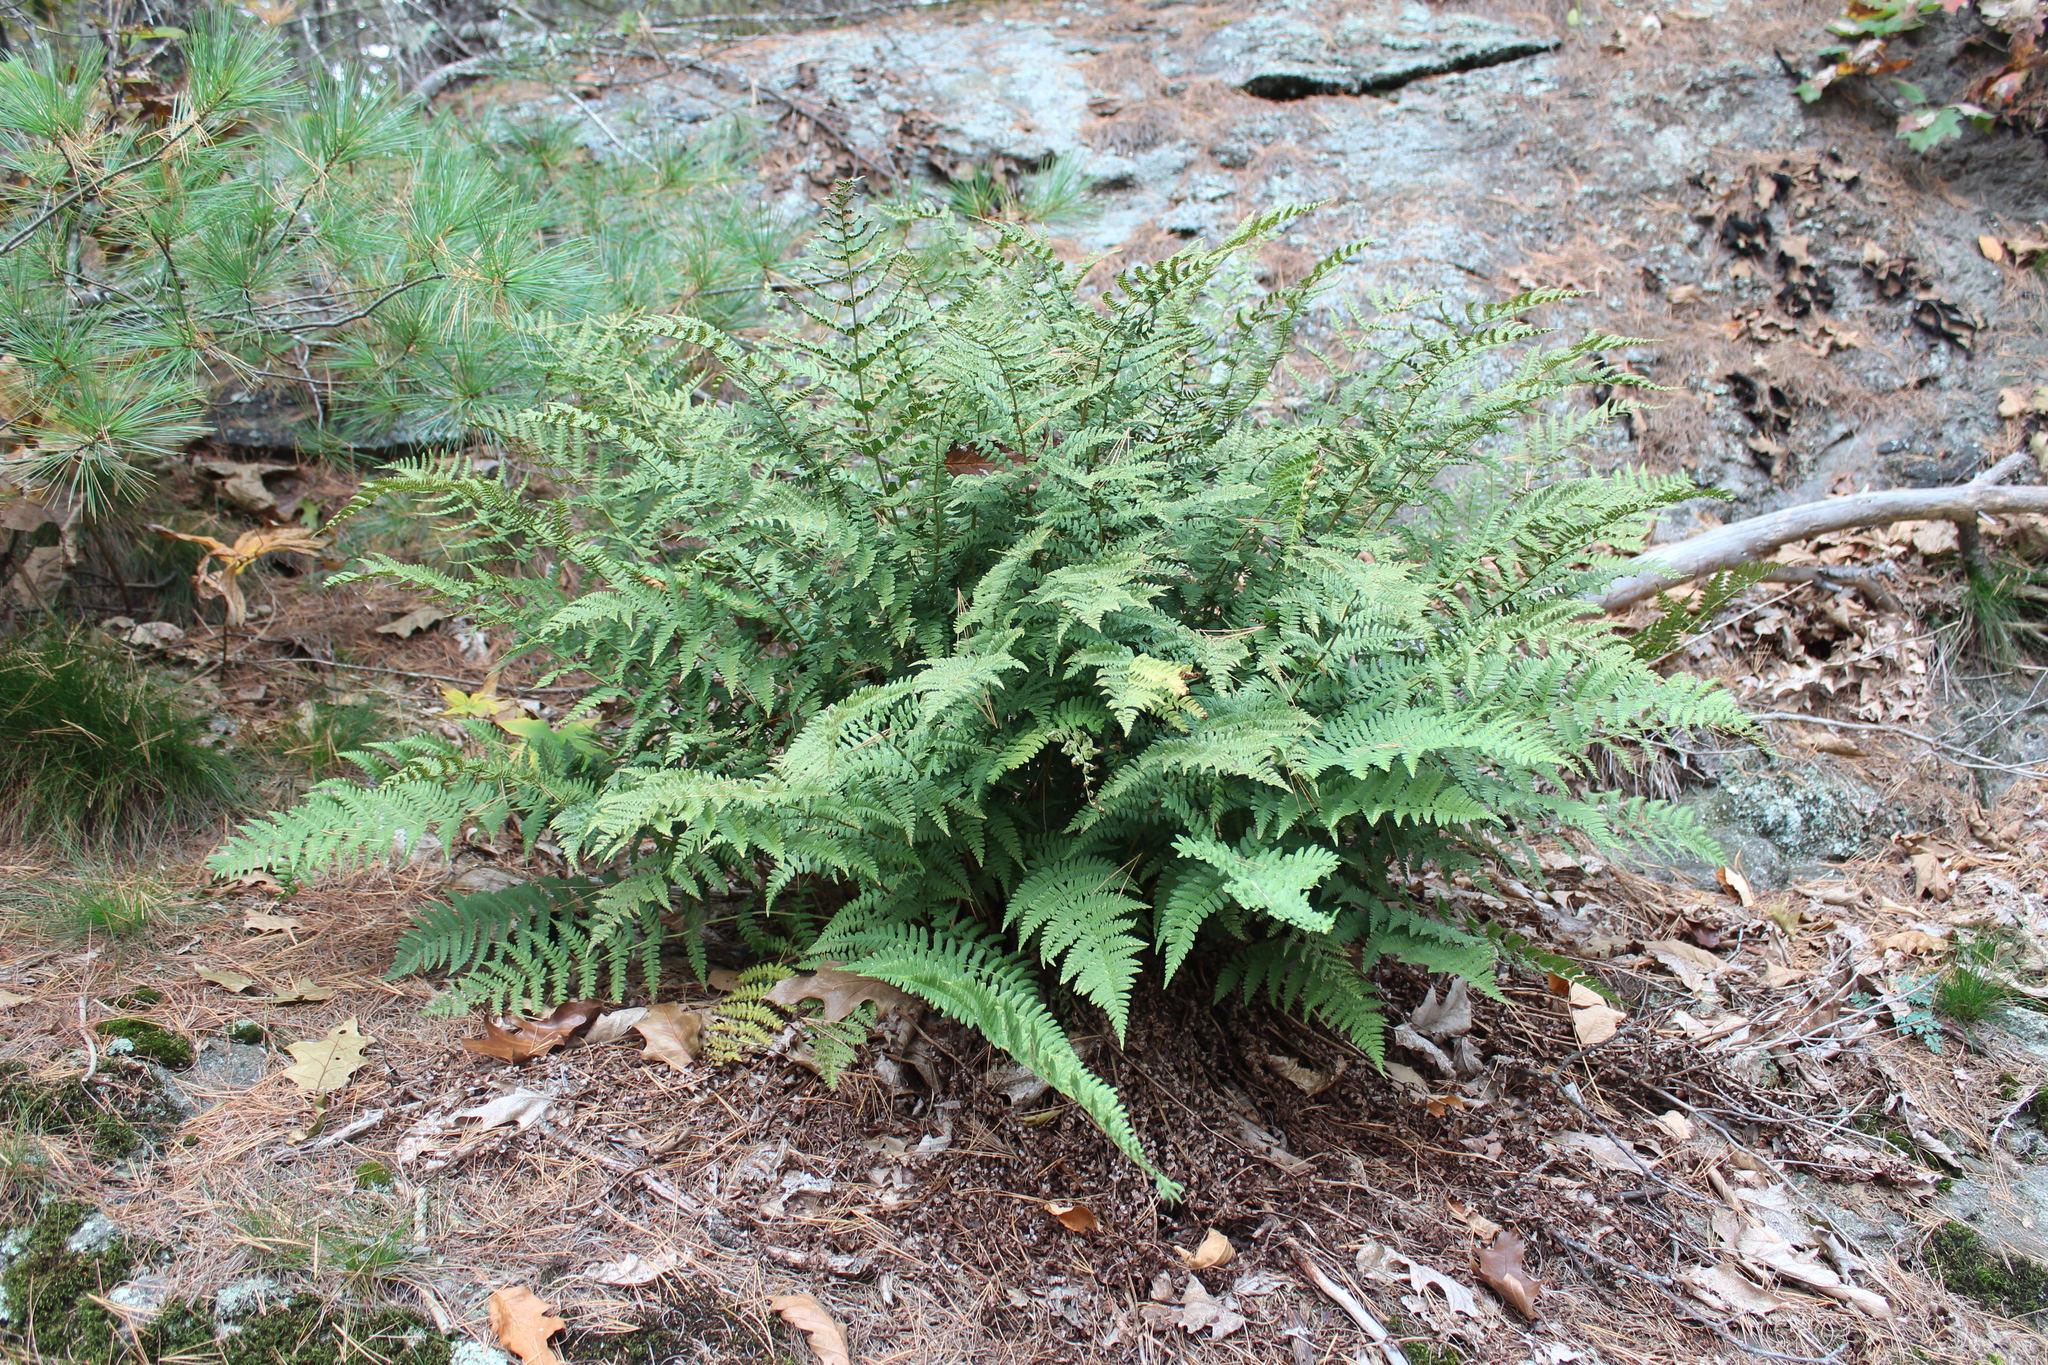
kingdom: Plantae
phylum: Tracheophyta
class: Polypodiopsida
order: Polypodiales
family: Dryopteridaceae
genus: Dryopteris
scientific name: Dryopteris marginalis
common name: Marginal wood fern
